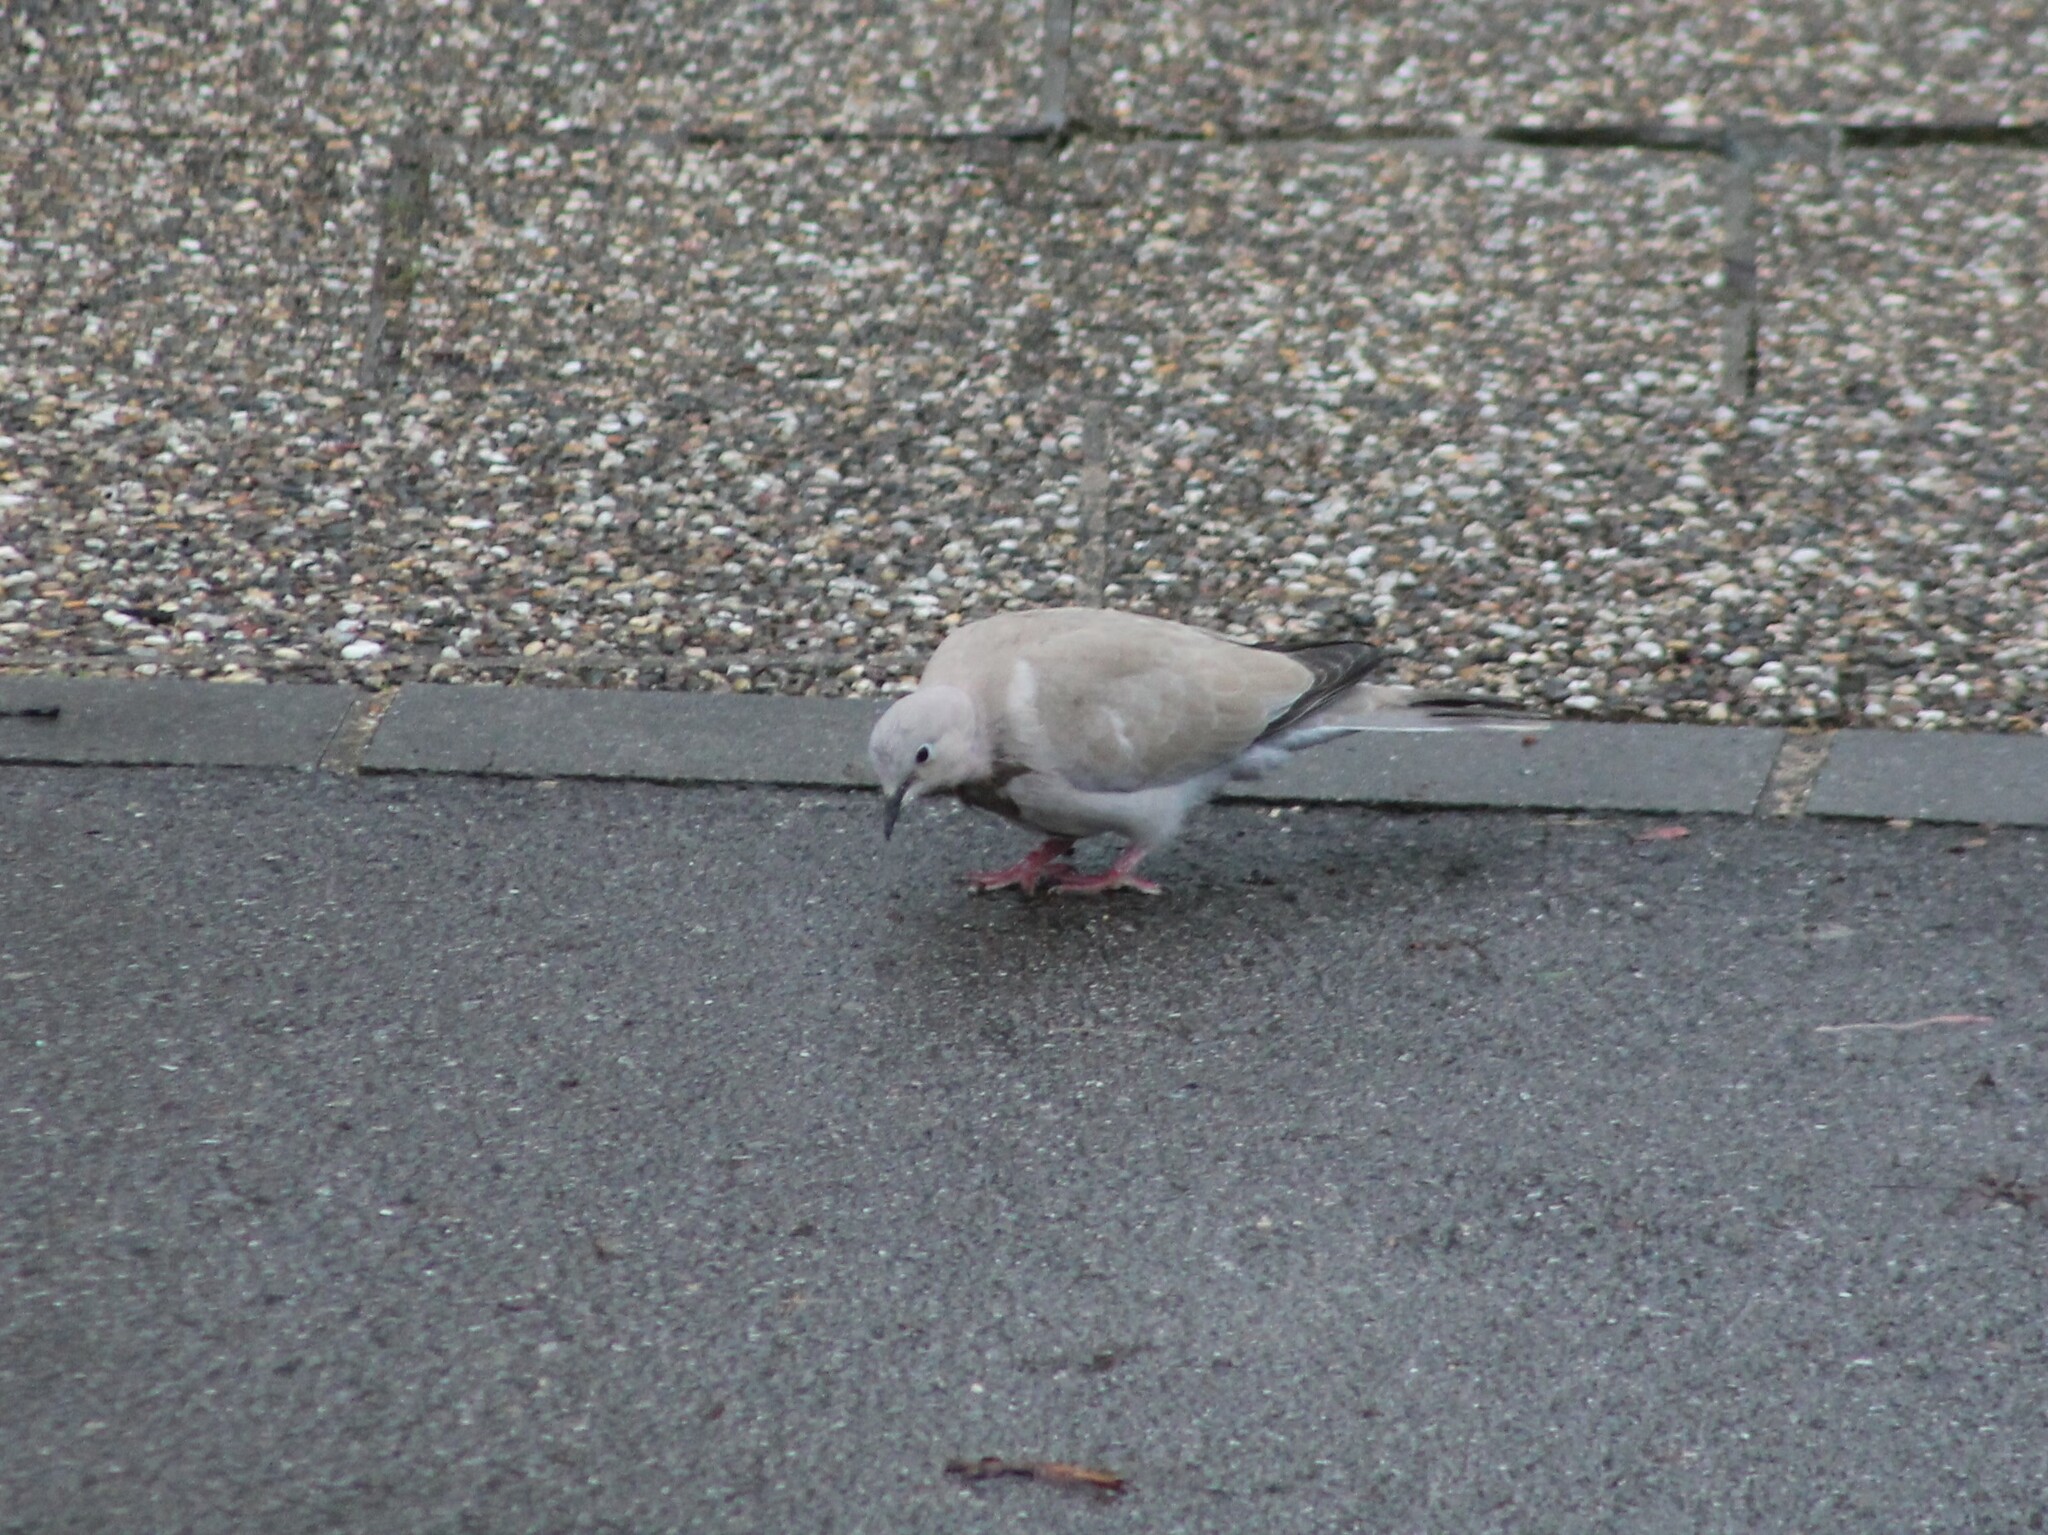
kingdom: Animalia
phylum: Chordata
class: Aves
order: Columbiformes
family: Columbidae
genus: Streptopelia
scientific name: Streptopelia decaocto
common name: Eurasian collared dove
